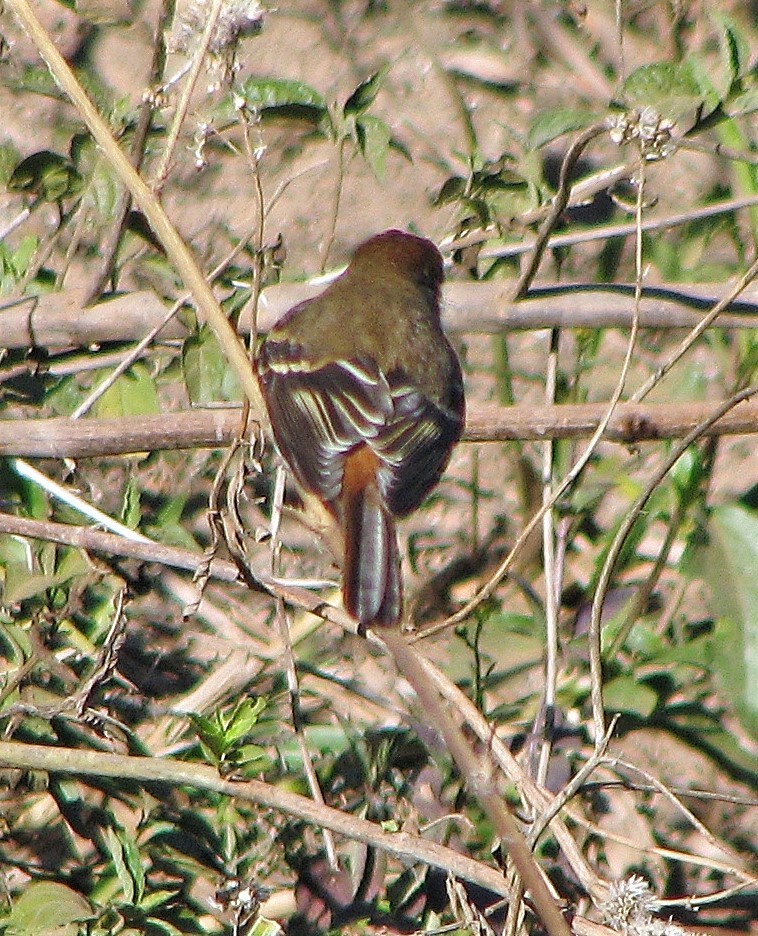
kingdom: Animalia
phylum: Chordata
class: Aves
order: Passeriformes
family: Tyrannidae
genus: Knipolegus
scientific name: Knipolegus cyanirostris
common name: Blue-billed black tyrant
